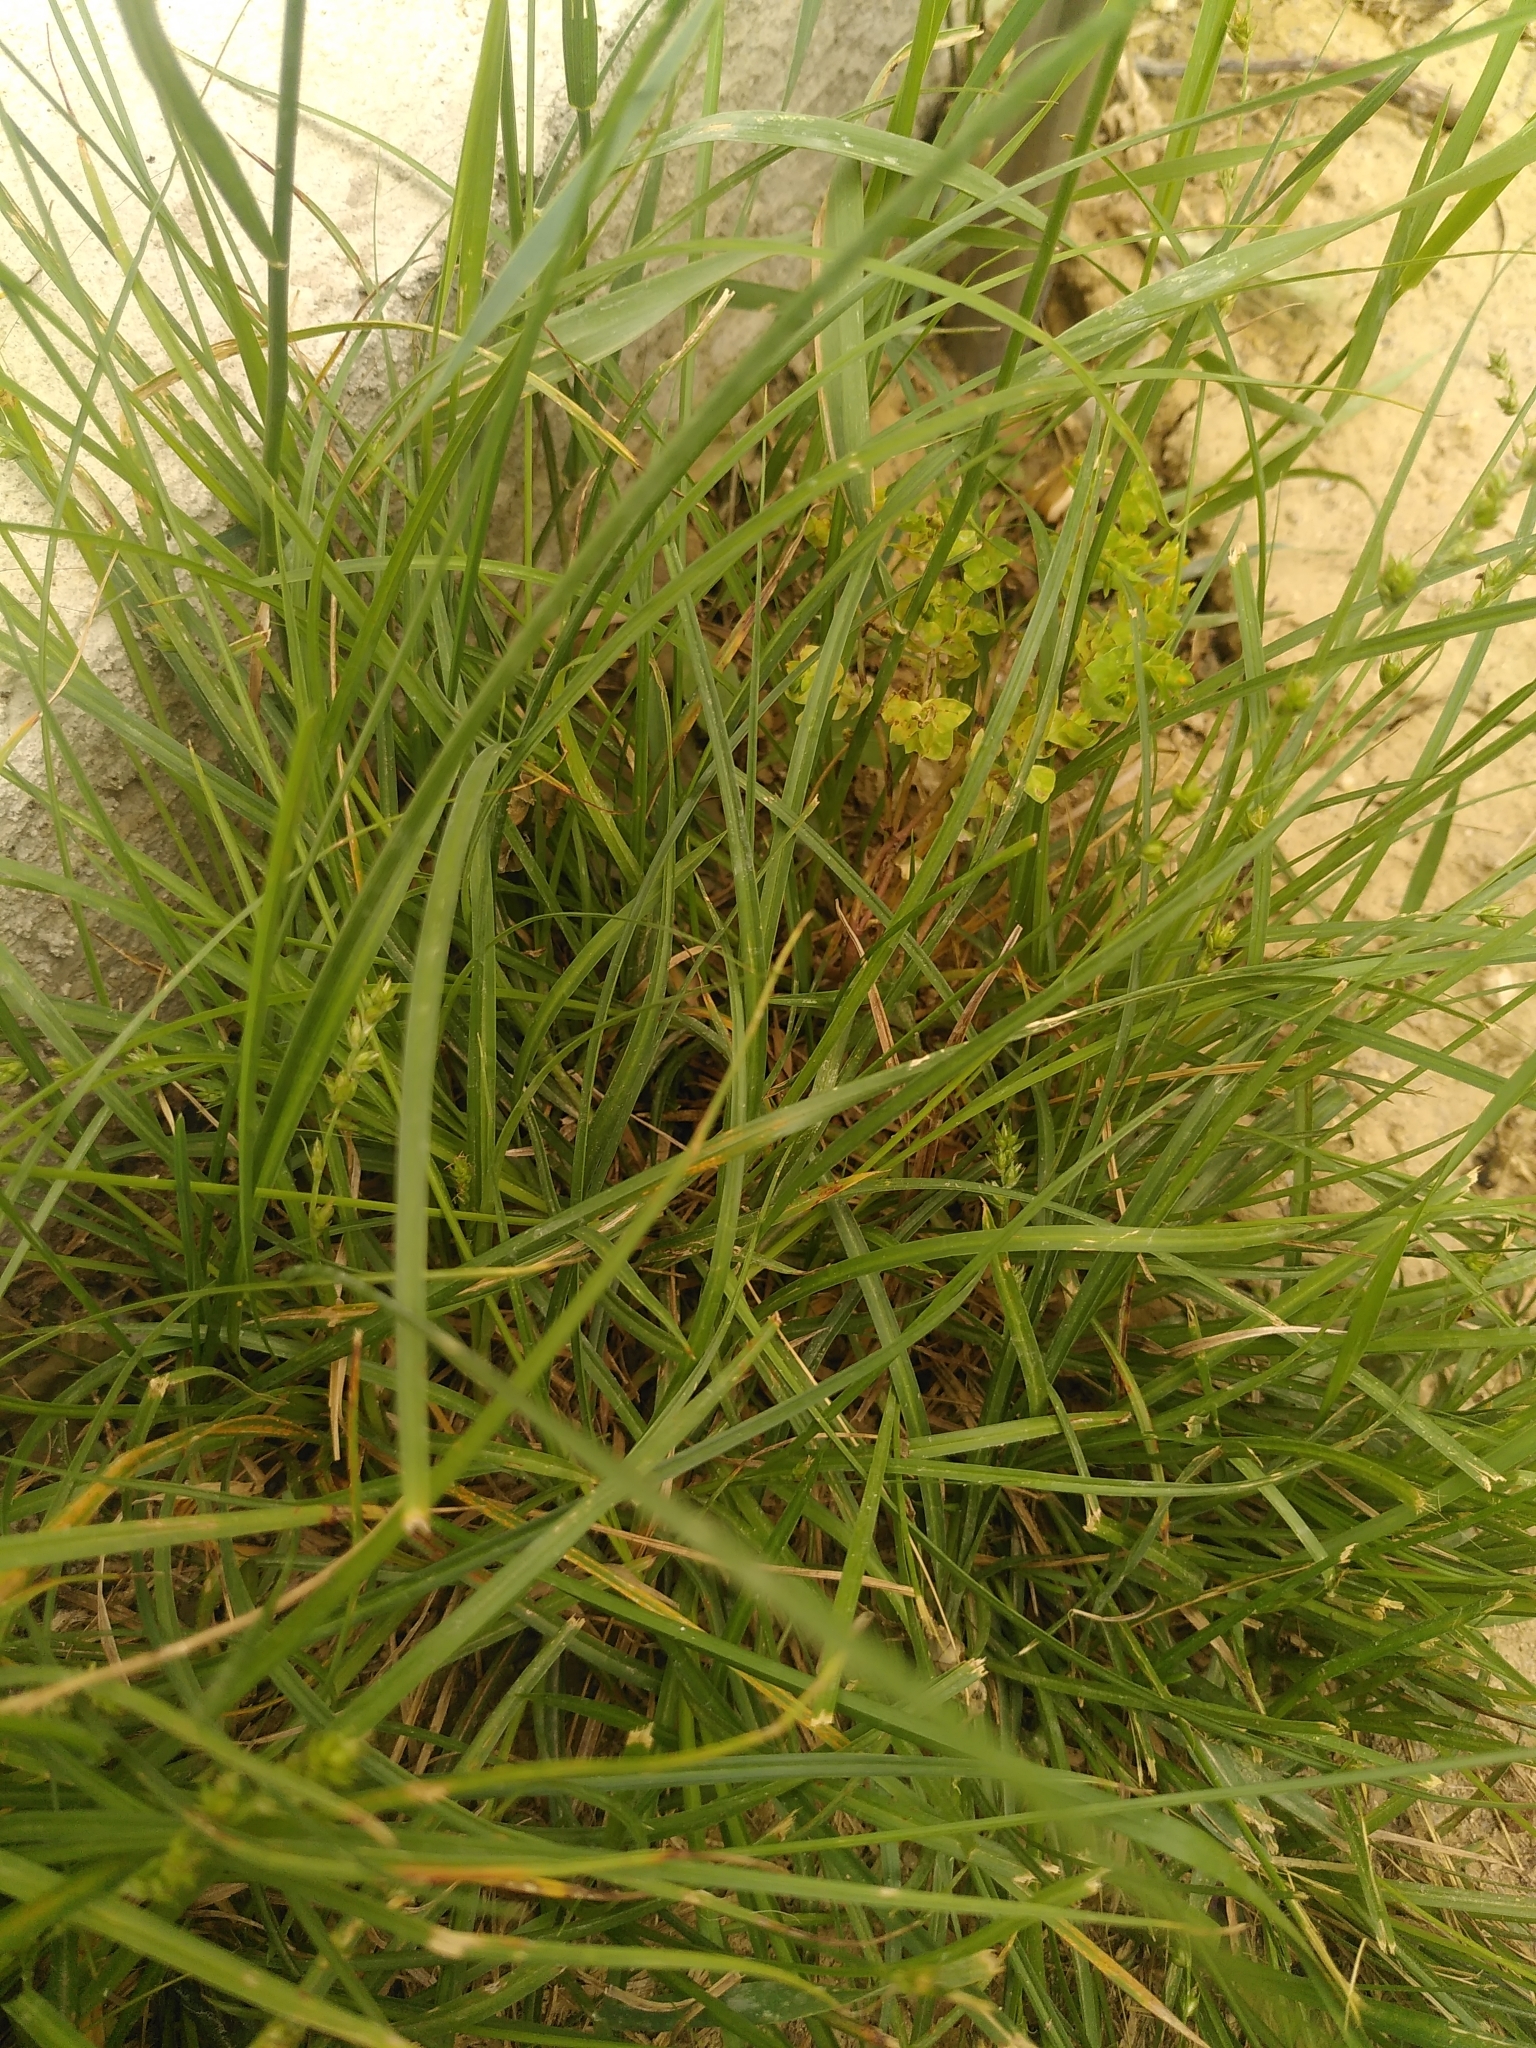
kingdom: Plantae
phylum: Tracheophyta
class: Liliopsida
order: Poales
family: Cyperaceae
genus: Carex
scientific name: Carex divulsa
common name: Grassland sedge
